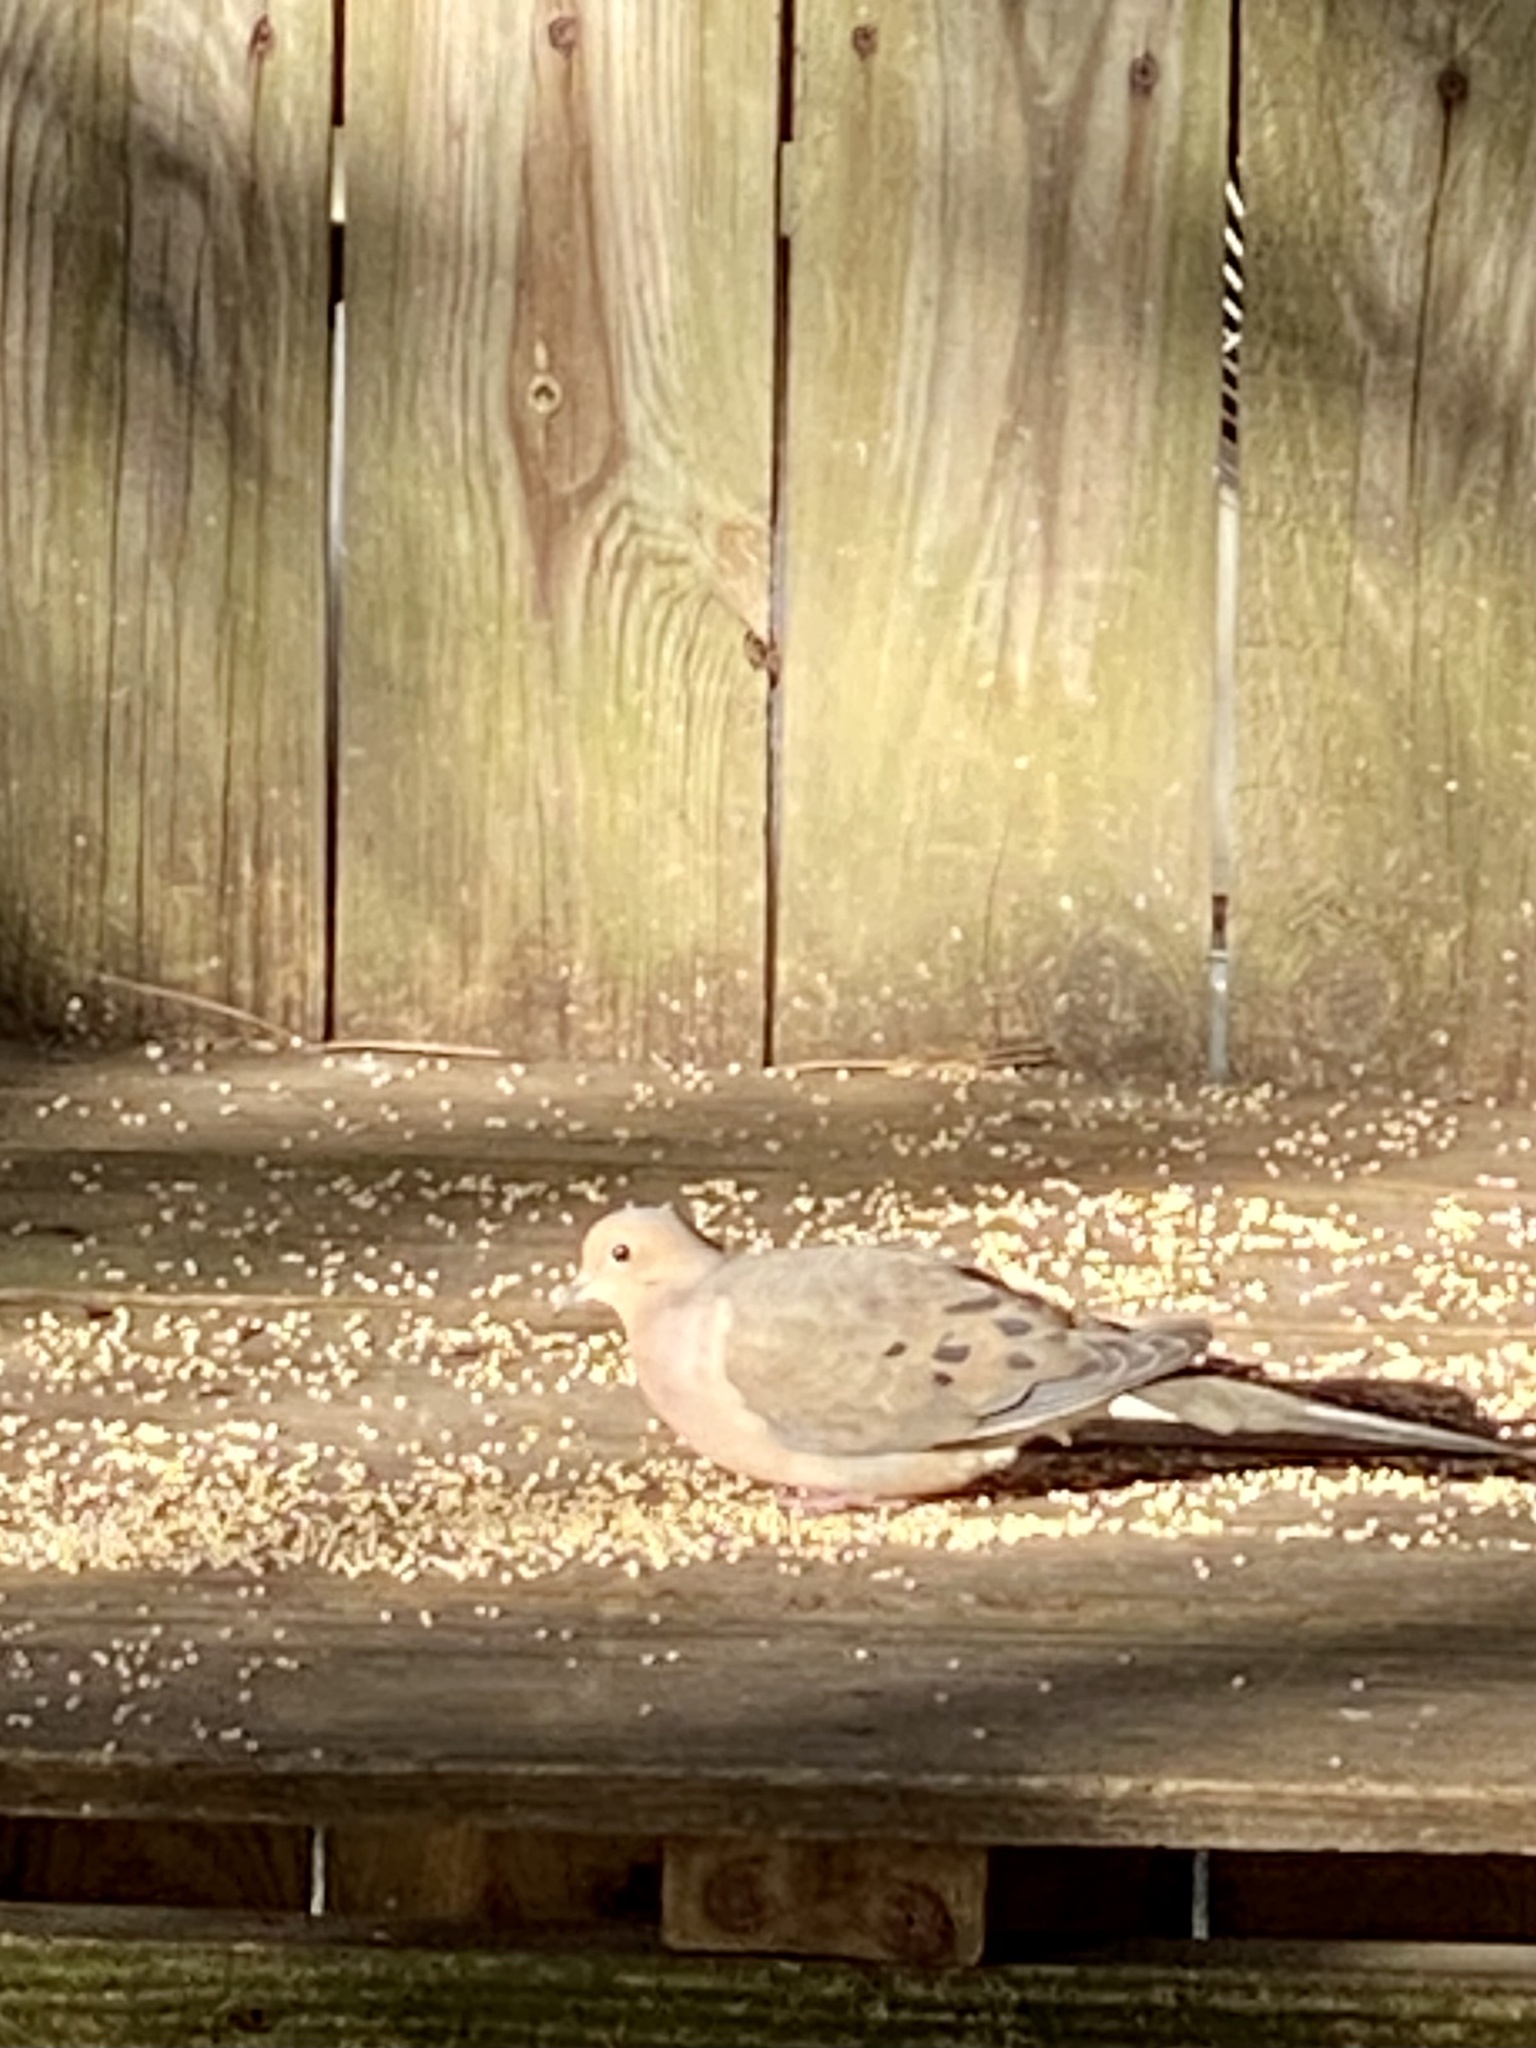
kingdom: Animalia
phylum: Chordata
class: Aves
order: Columbiformes
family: Columbidae
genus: Zenaida
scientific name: Zenaida macroura
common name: Mourning dove
